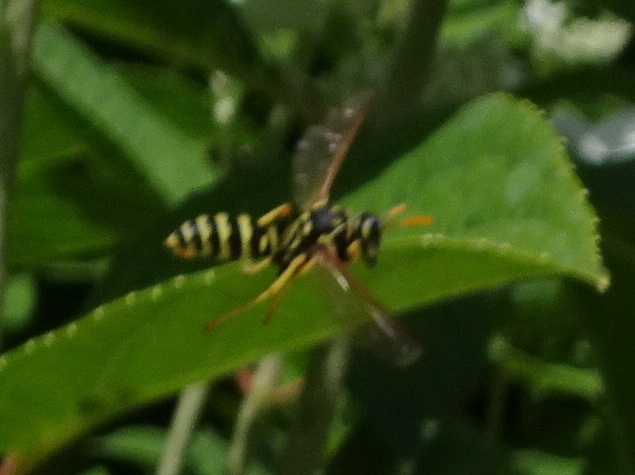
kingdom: Animalia
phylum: Arthropoda
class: Insecta
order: Hymenoptera
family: Eumenidae
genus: Polistes
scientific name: Polistes dominula
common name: Paper wasp
